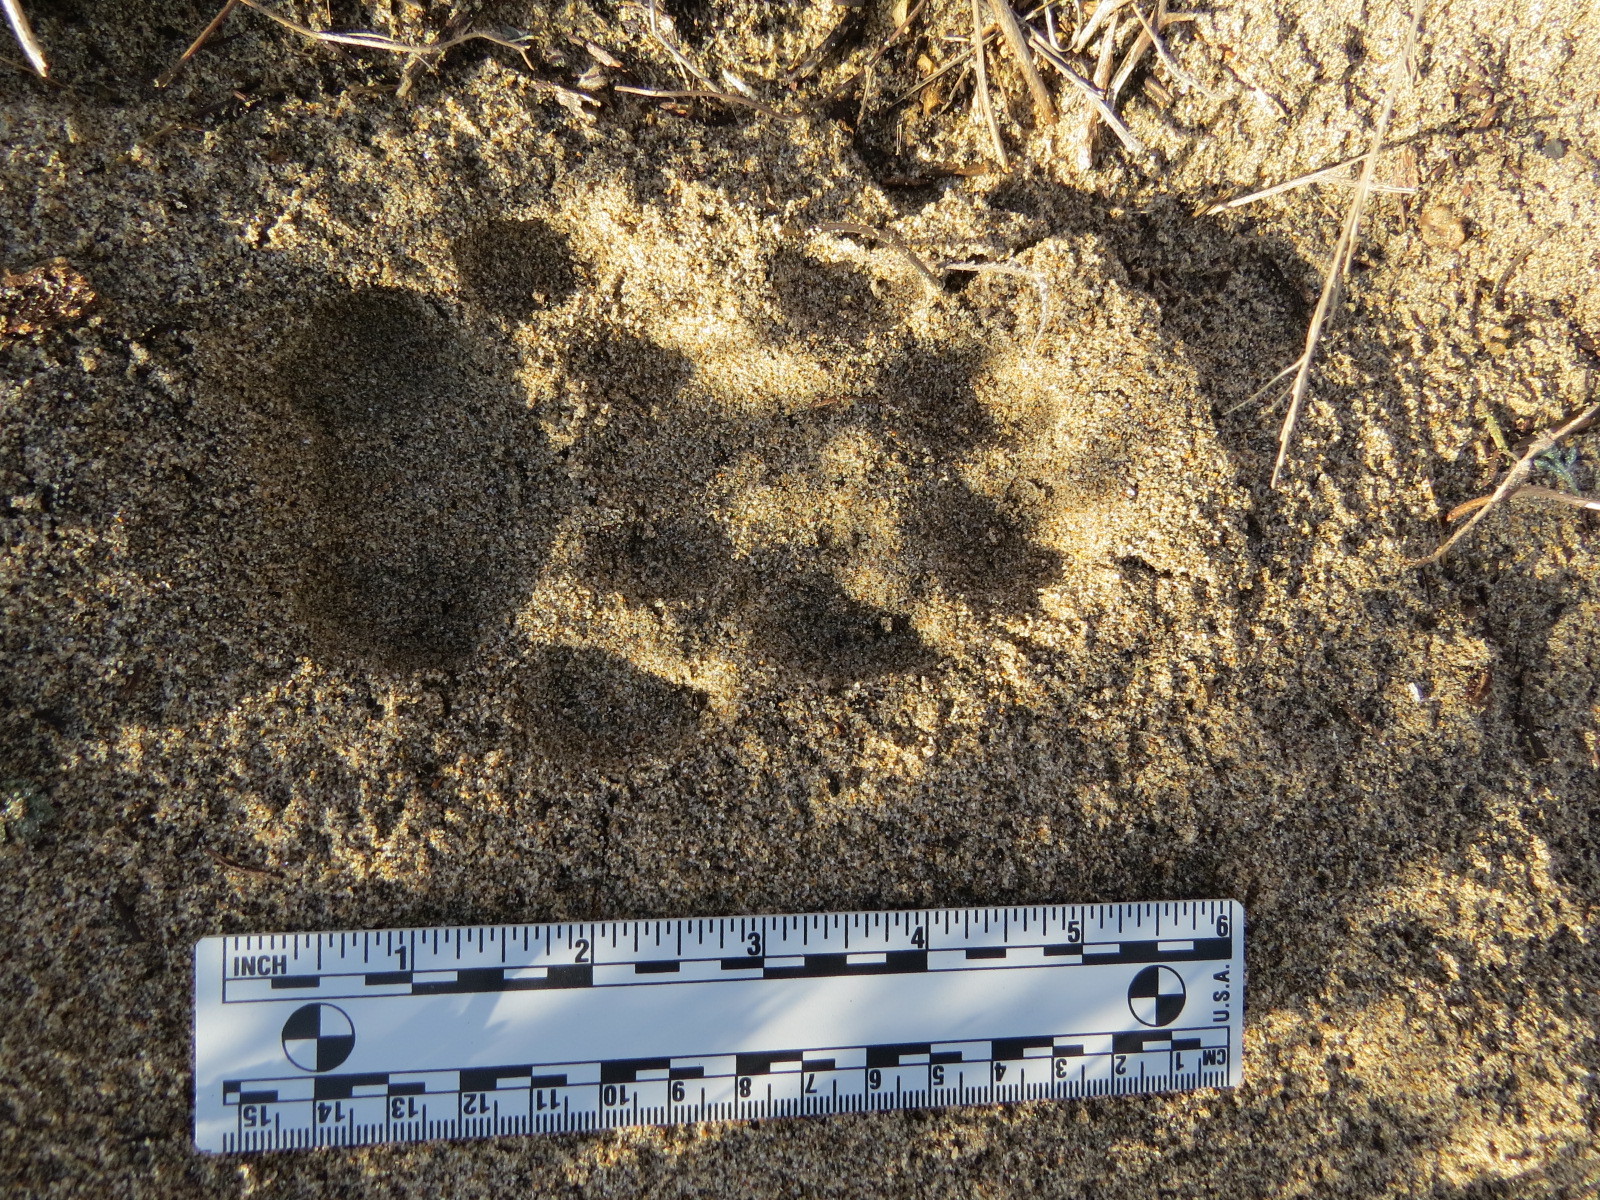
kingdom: Animalia
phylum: Chordata
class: Mammalia
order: Carnivora
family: Felidae
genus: Puma
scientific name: Puma concolor
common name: Puma
